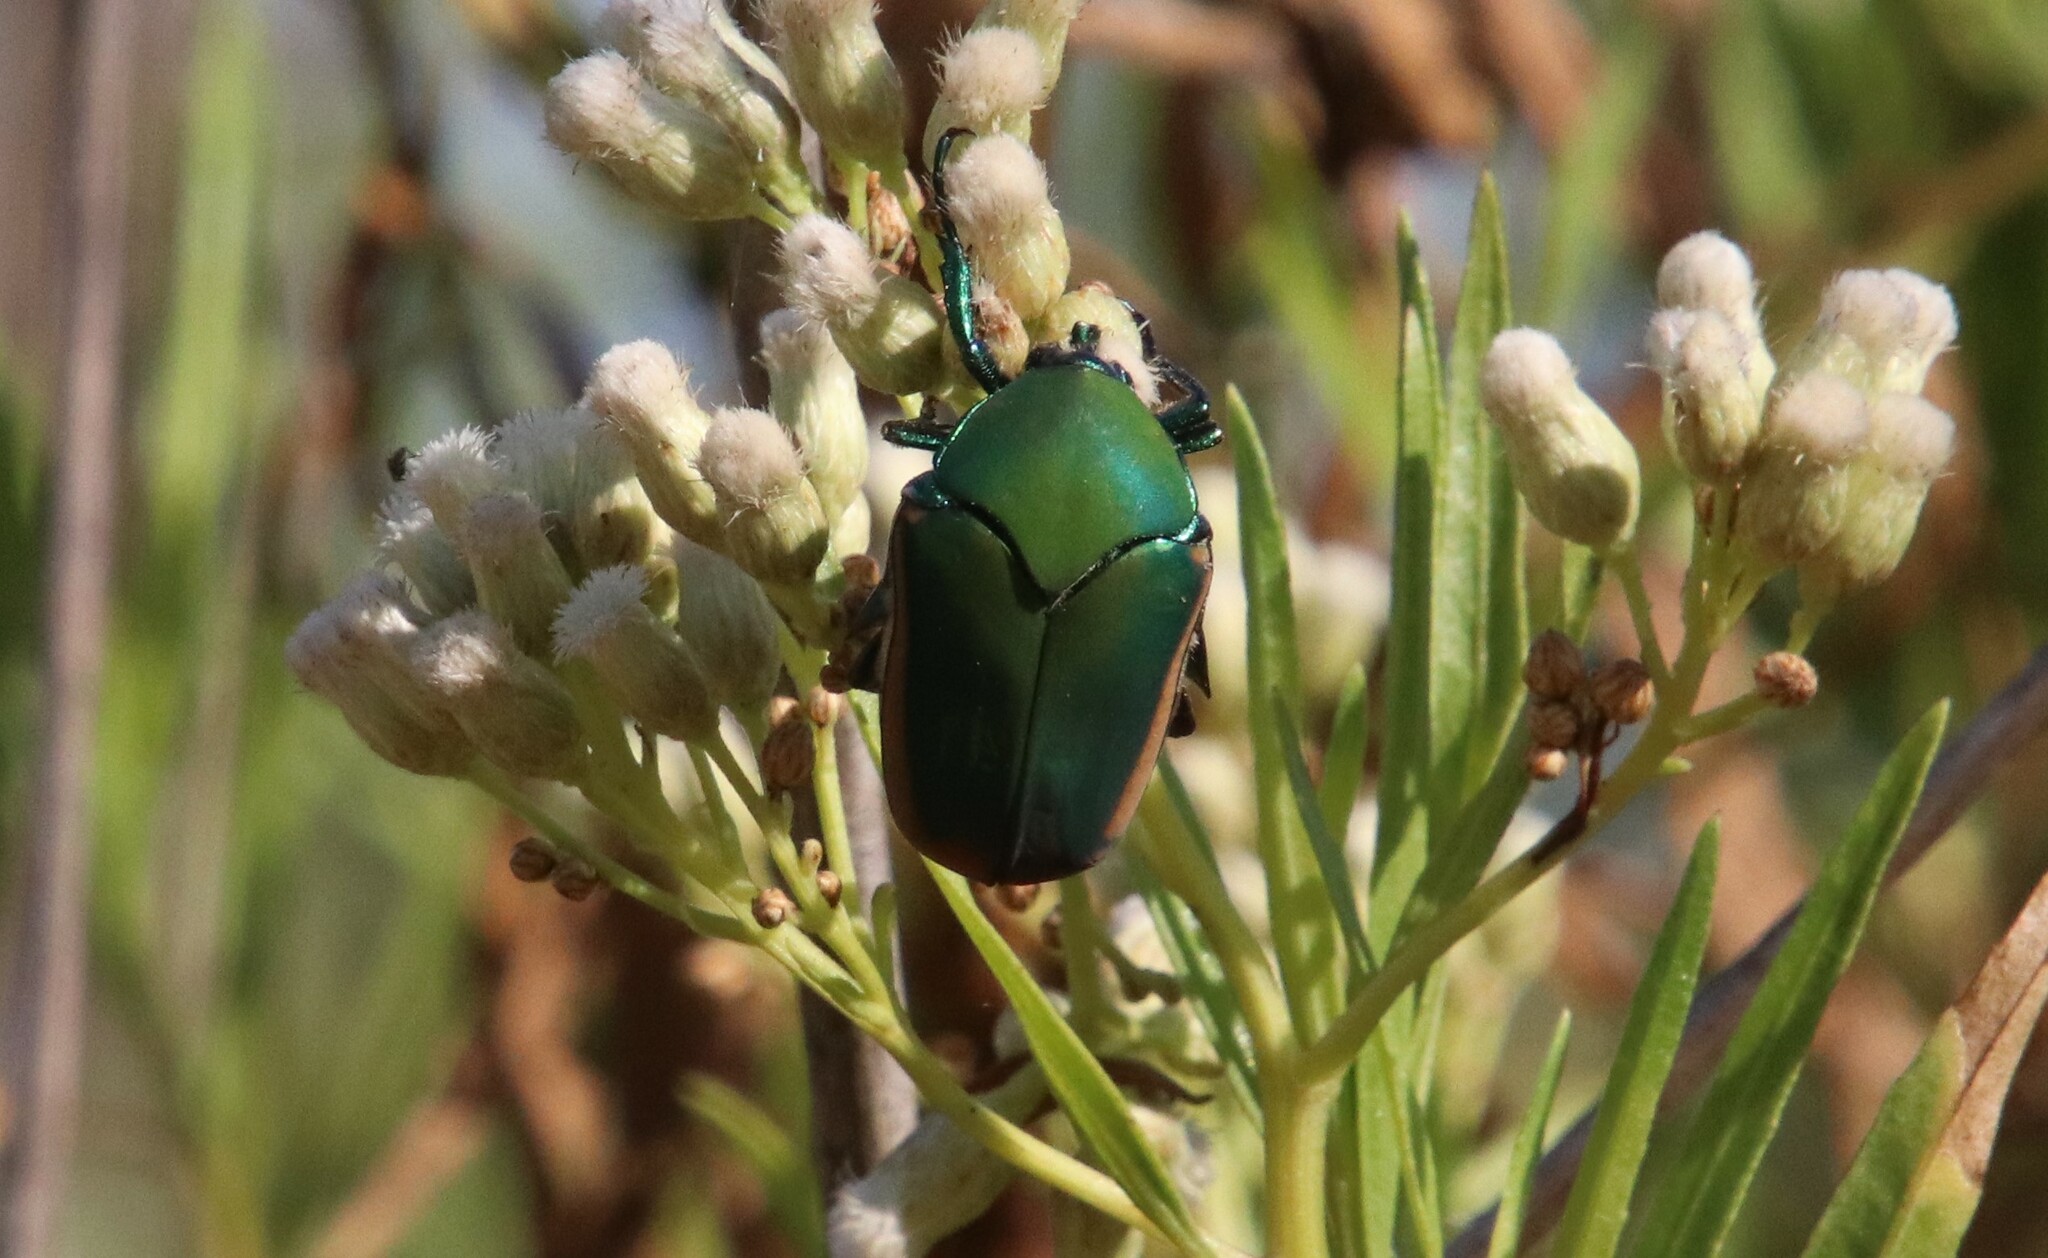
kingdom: Animalia
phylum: Arthropoda
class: Insecta
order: Coleoptera
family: Scarabaeidae
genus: Cotinis
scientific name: Cotinis mutabilis
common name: Figeater beetle
